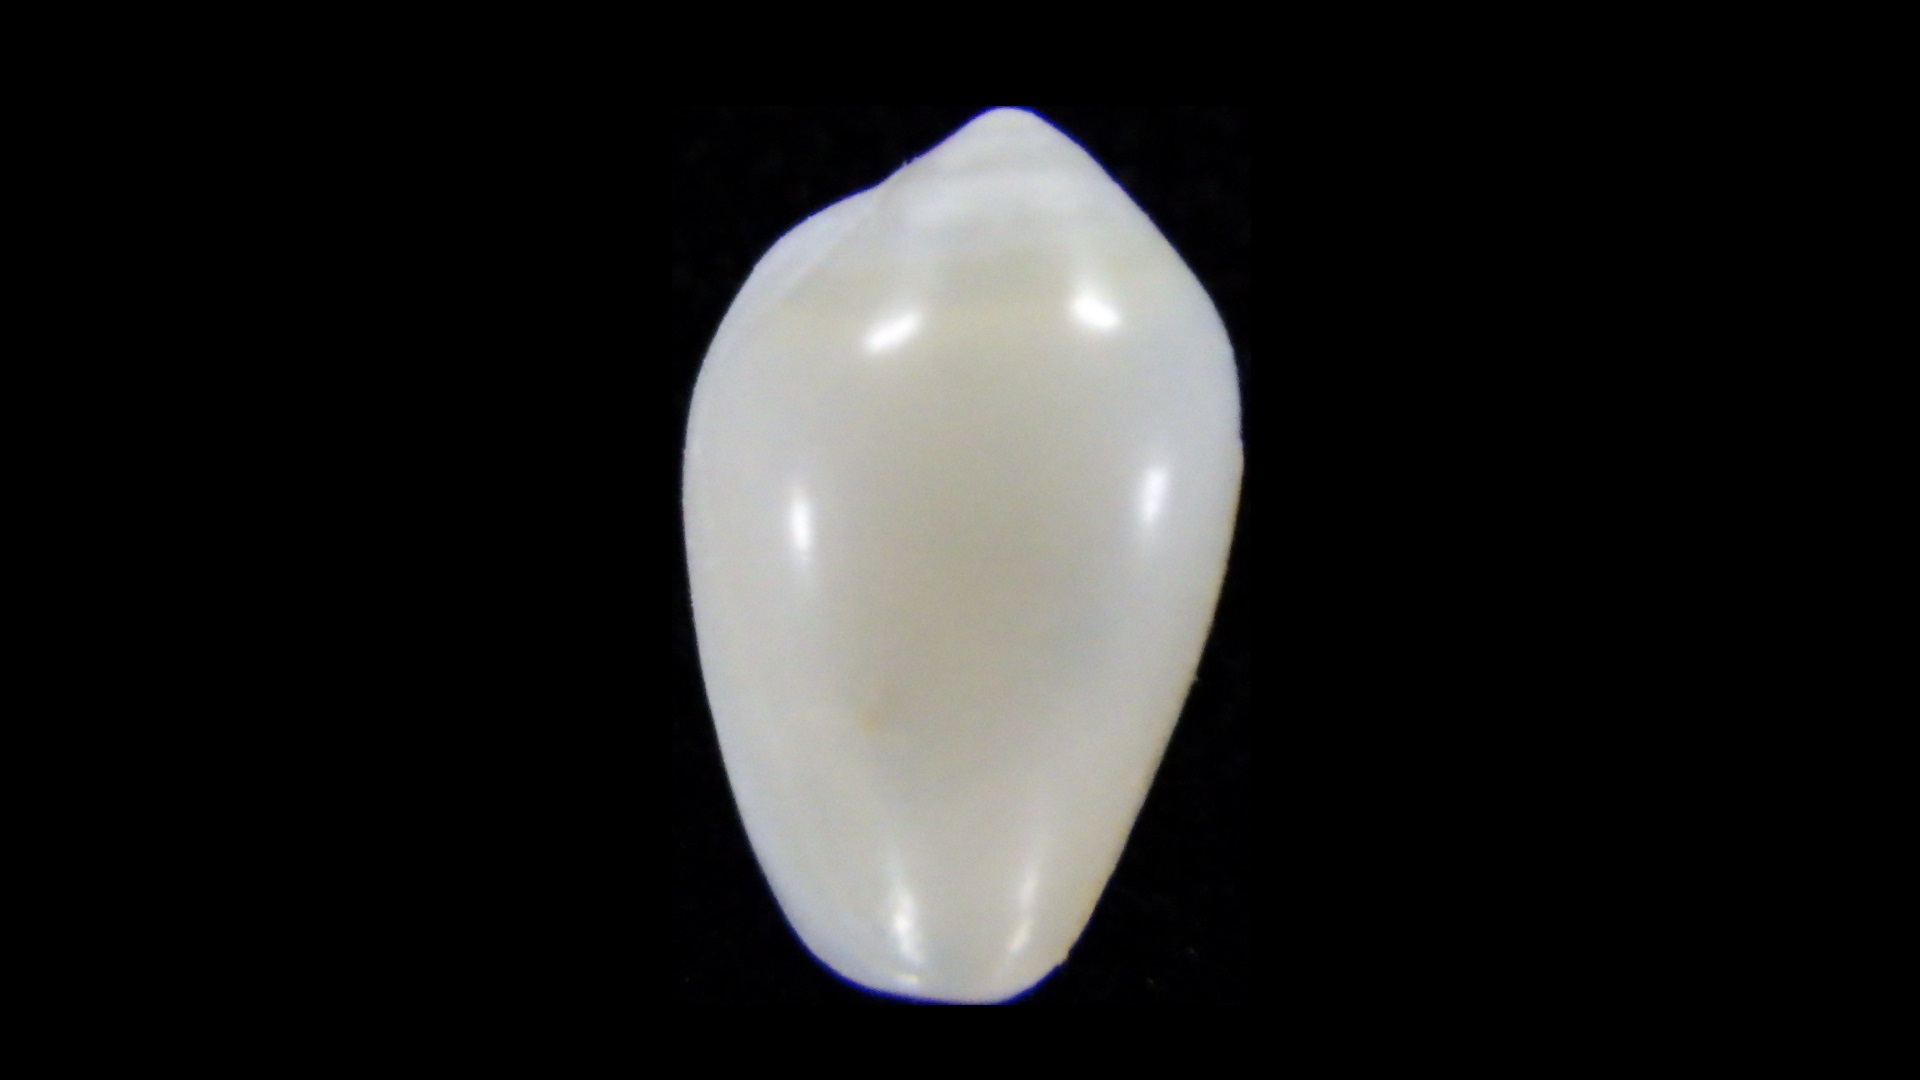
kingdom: Animalia
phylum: Mollusca
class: Gastropoda
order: Neogastropoda
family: Marginellidae
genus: Mesoginella
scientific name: Mesoginella koma
